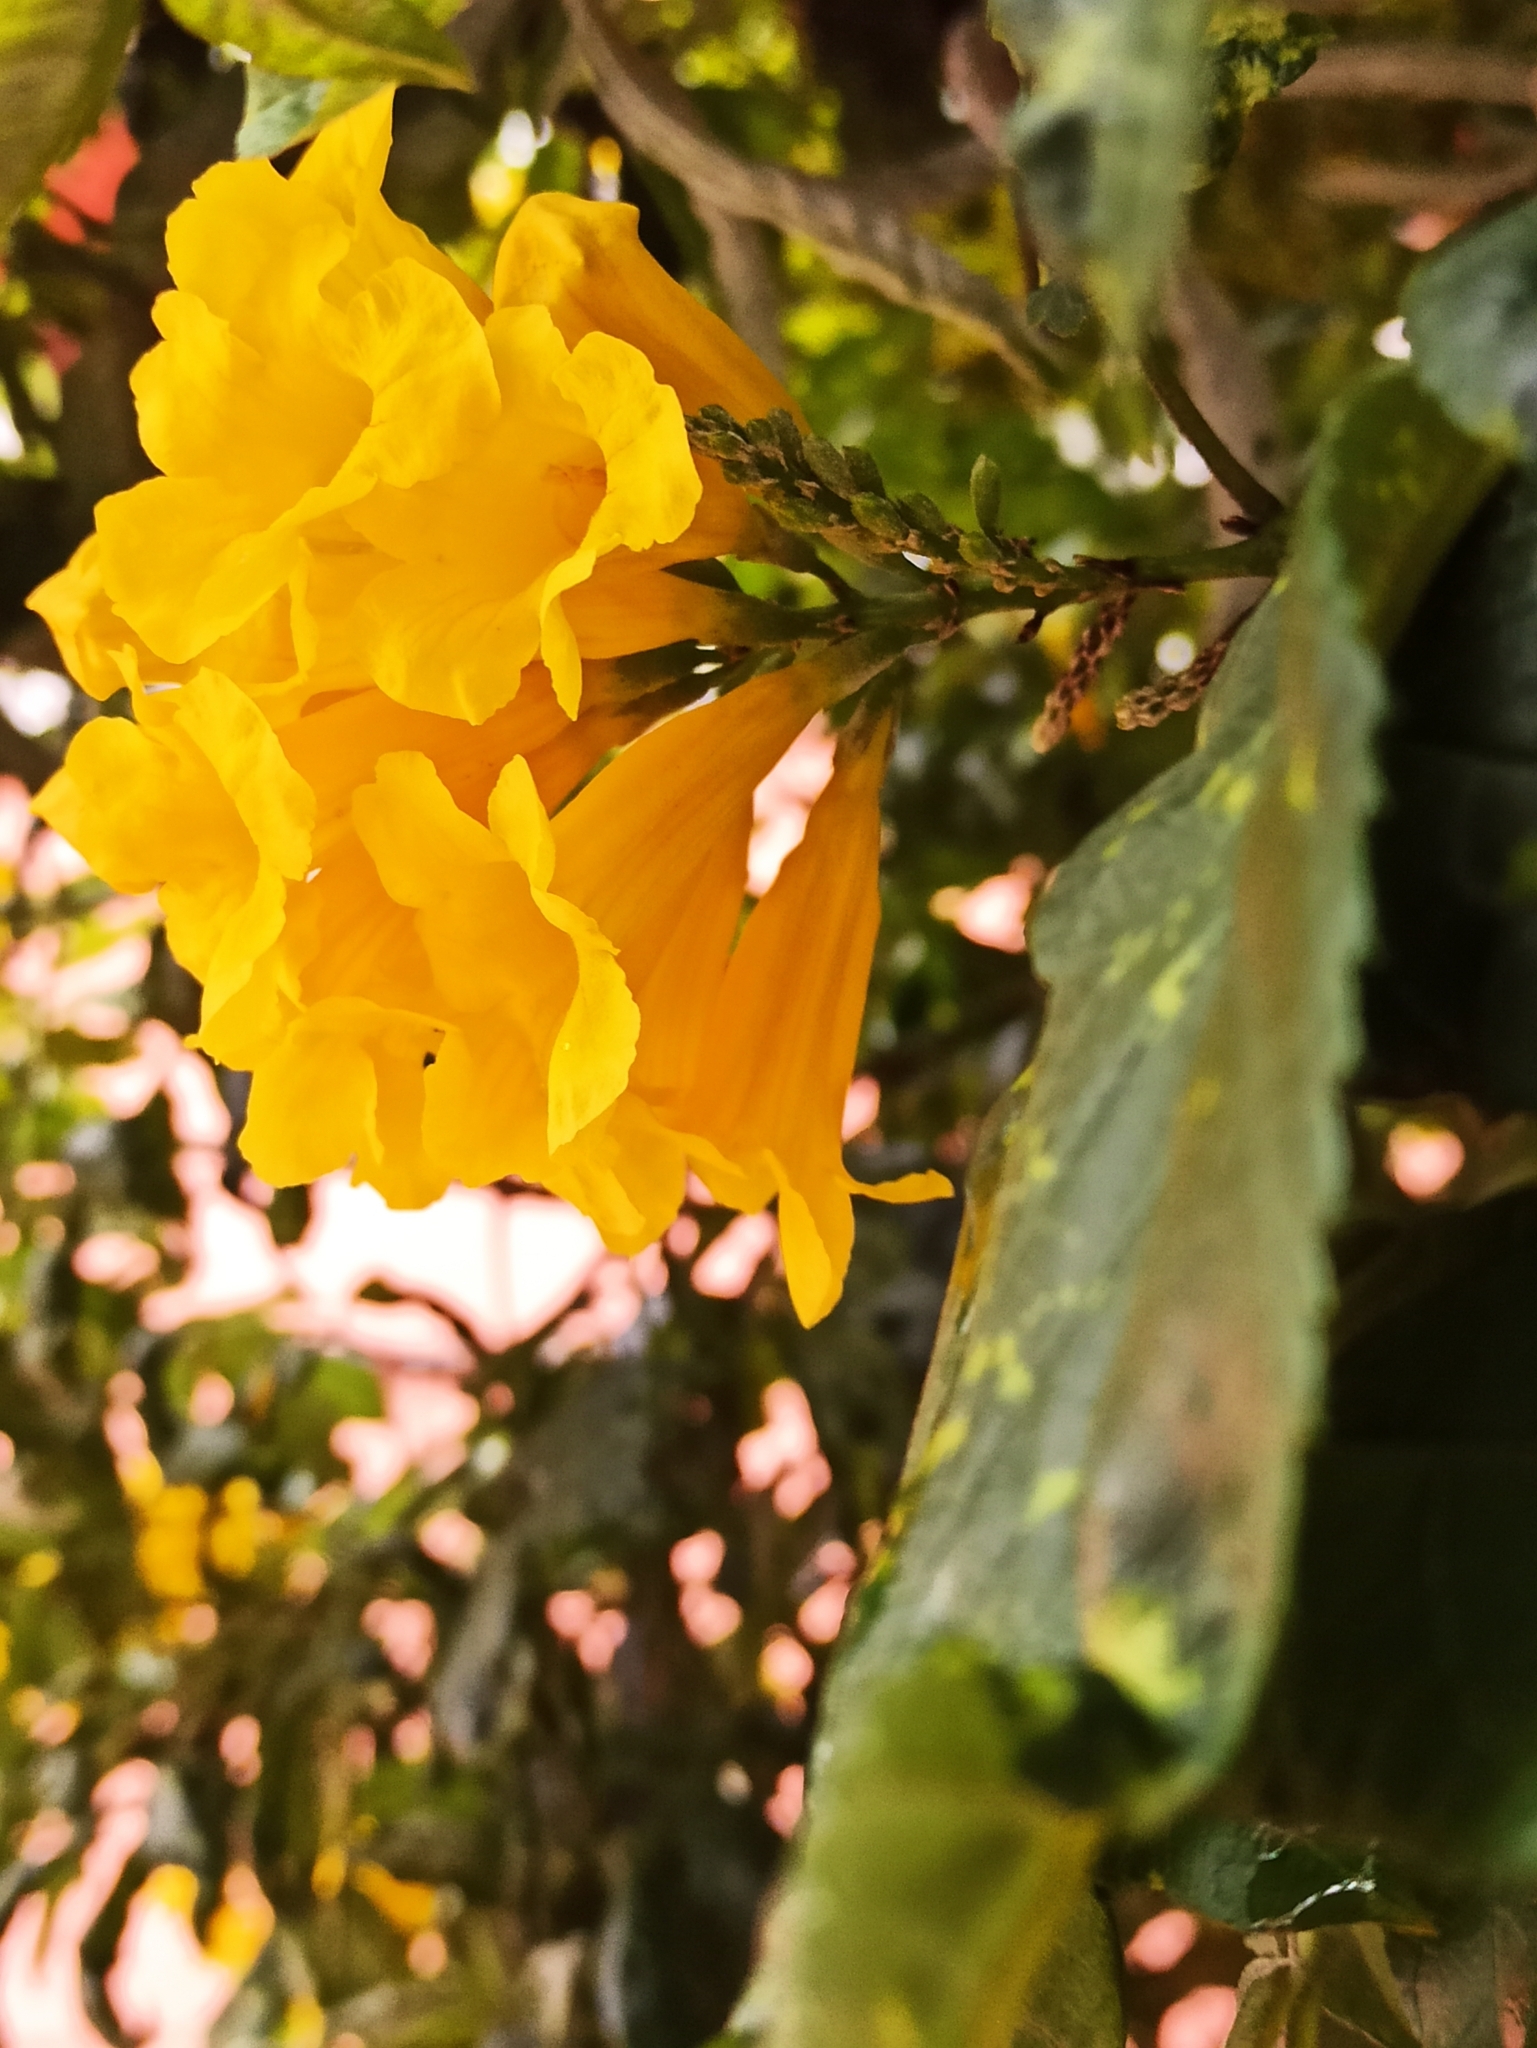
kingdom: Plantae
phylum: Tracheophyta
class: Magnoliopsida
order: Lamiales
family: Bignoniaceae
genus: Tecoma
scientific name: Tecoma stans
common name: Yellow trumpetbush
